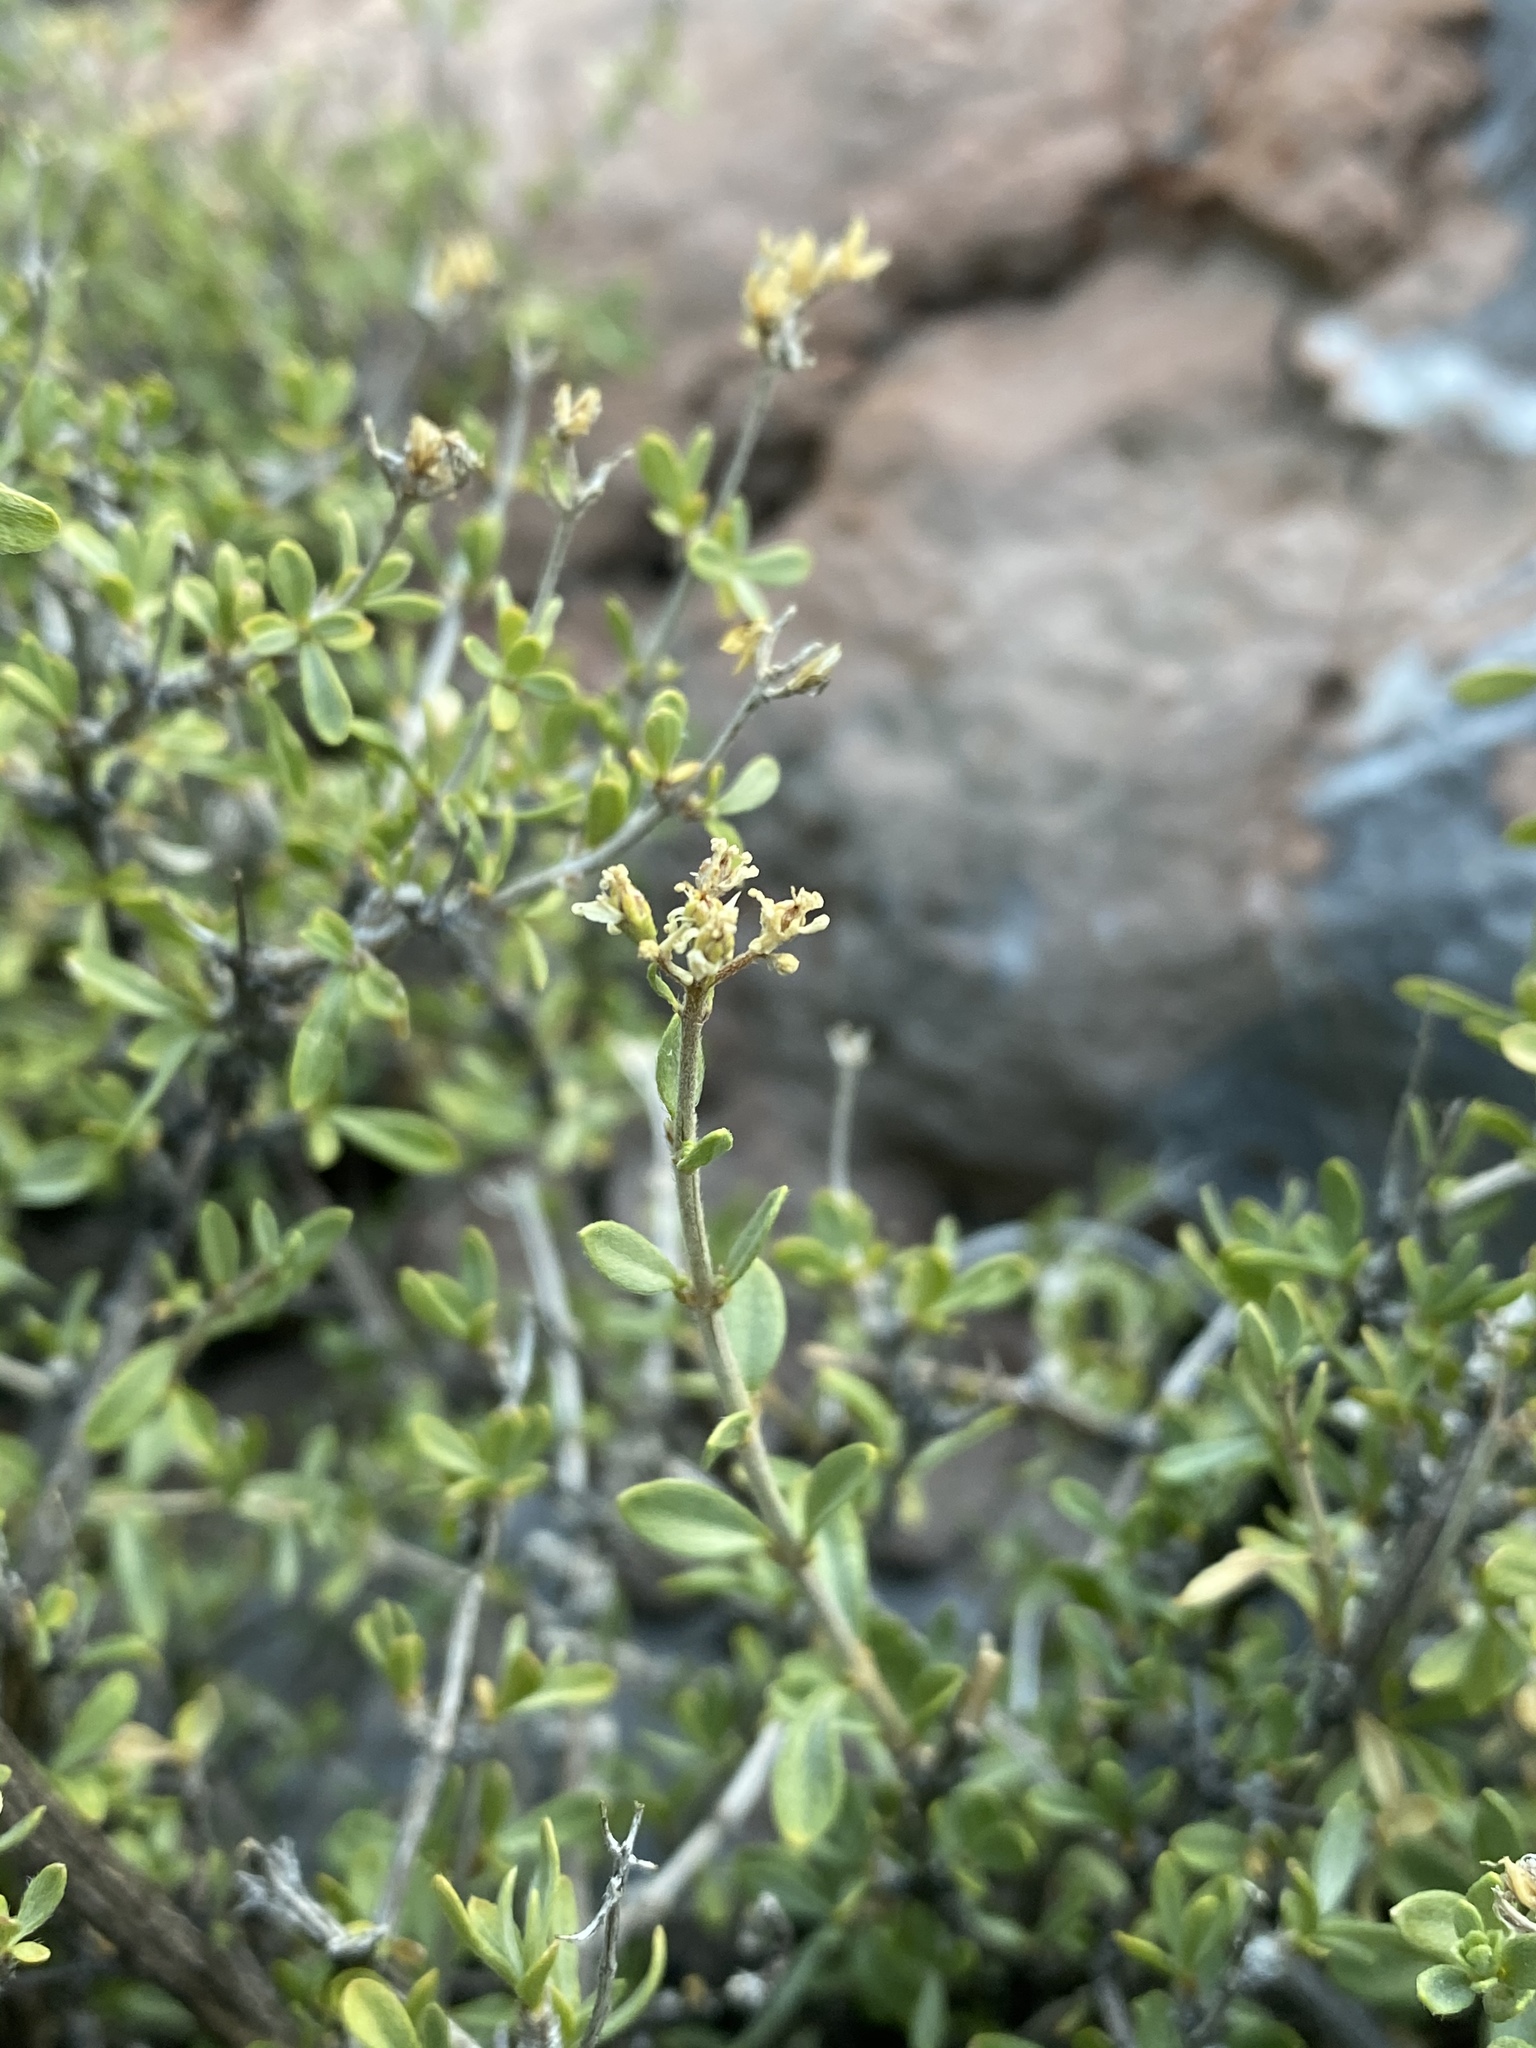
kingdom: Plantae
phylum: Tracheophyta
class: Magnoliopsida
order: Cornales
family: Hydrangeaceae
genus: Fendlerella
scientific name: Fendlerella utahensis
